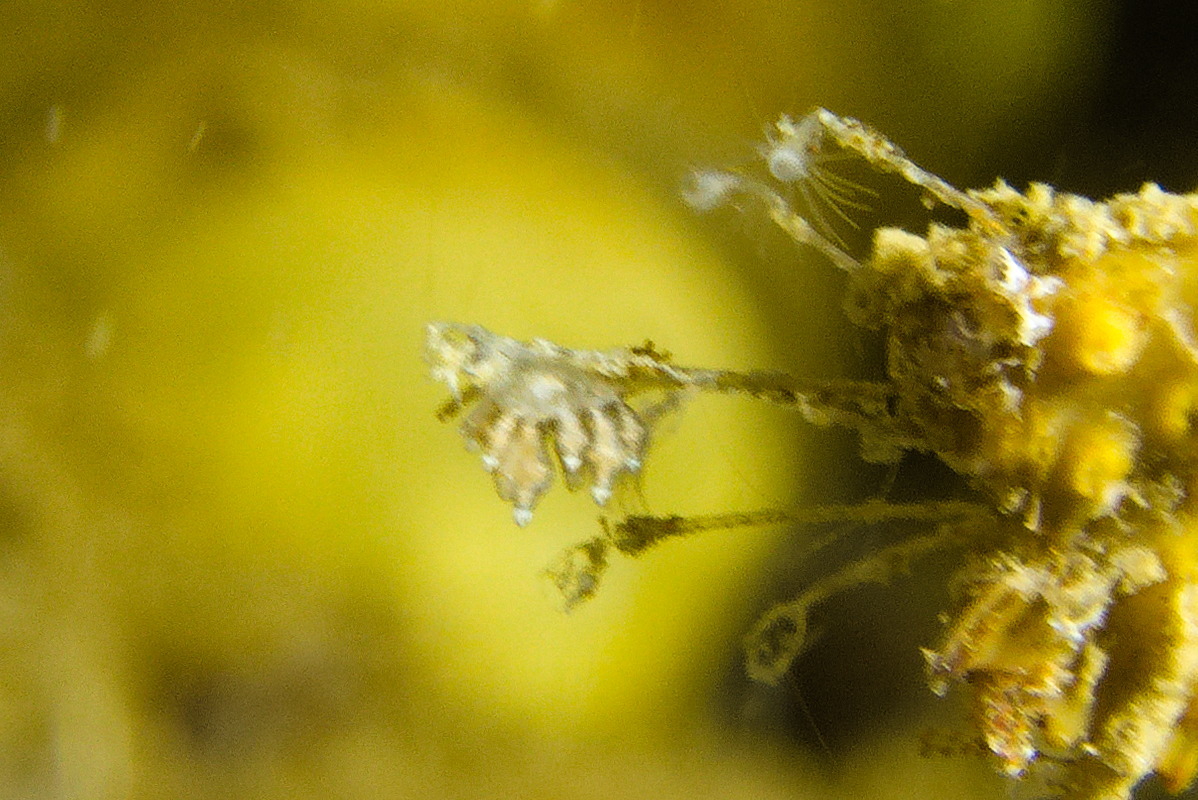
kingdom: Animalia
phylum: Mollusca
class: Gastropoda
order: Nudibranchia
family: Eubranchidae
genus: Eubranchus
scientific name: Eubranchus exiguus
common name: Balloon aeolis
